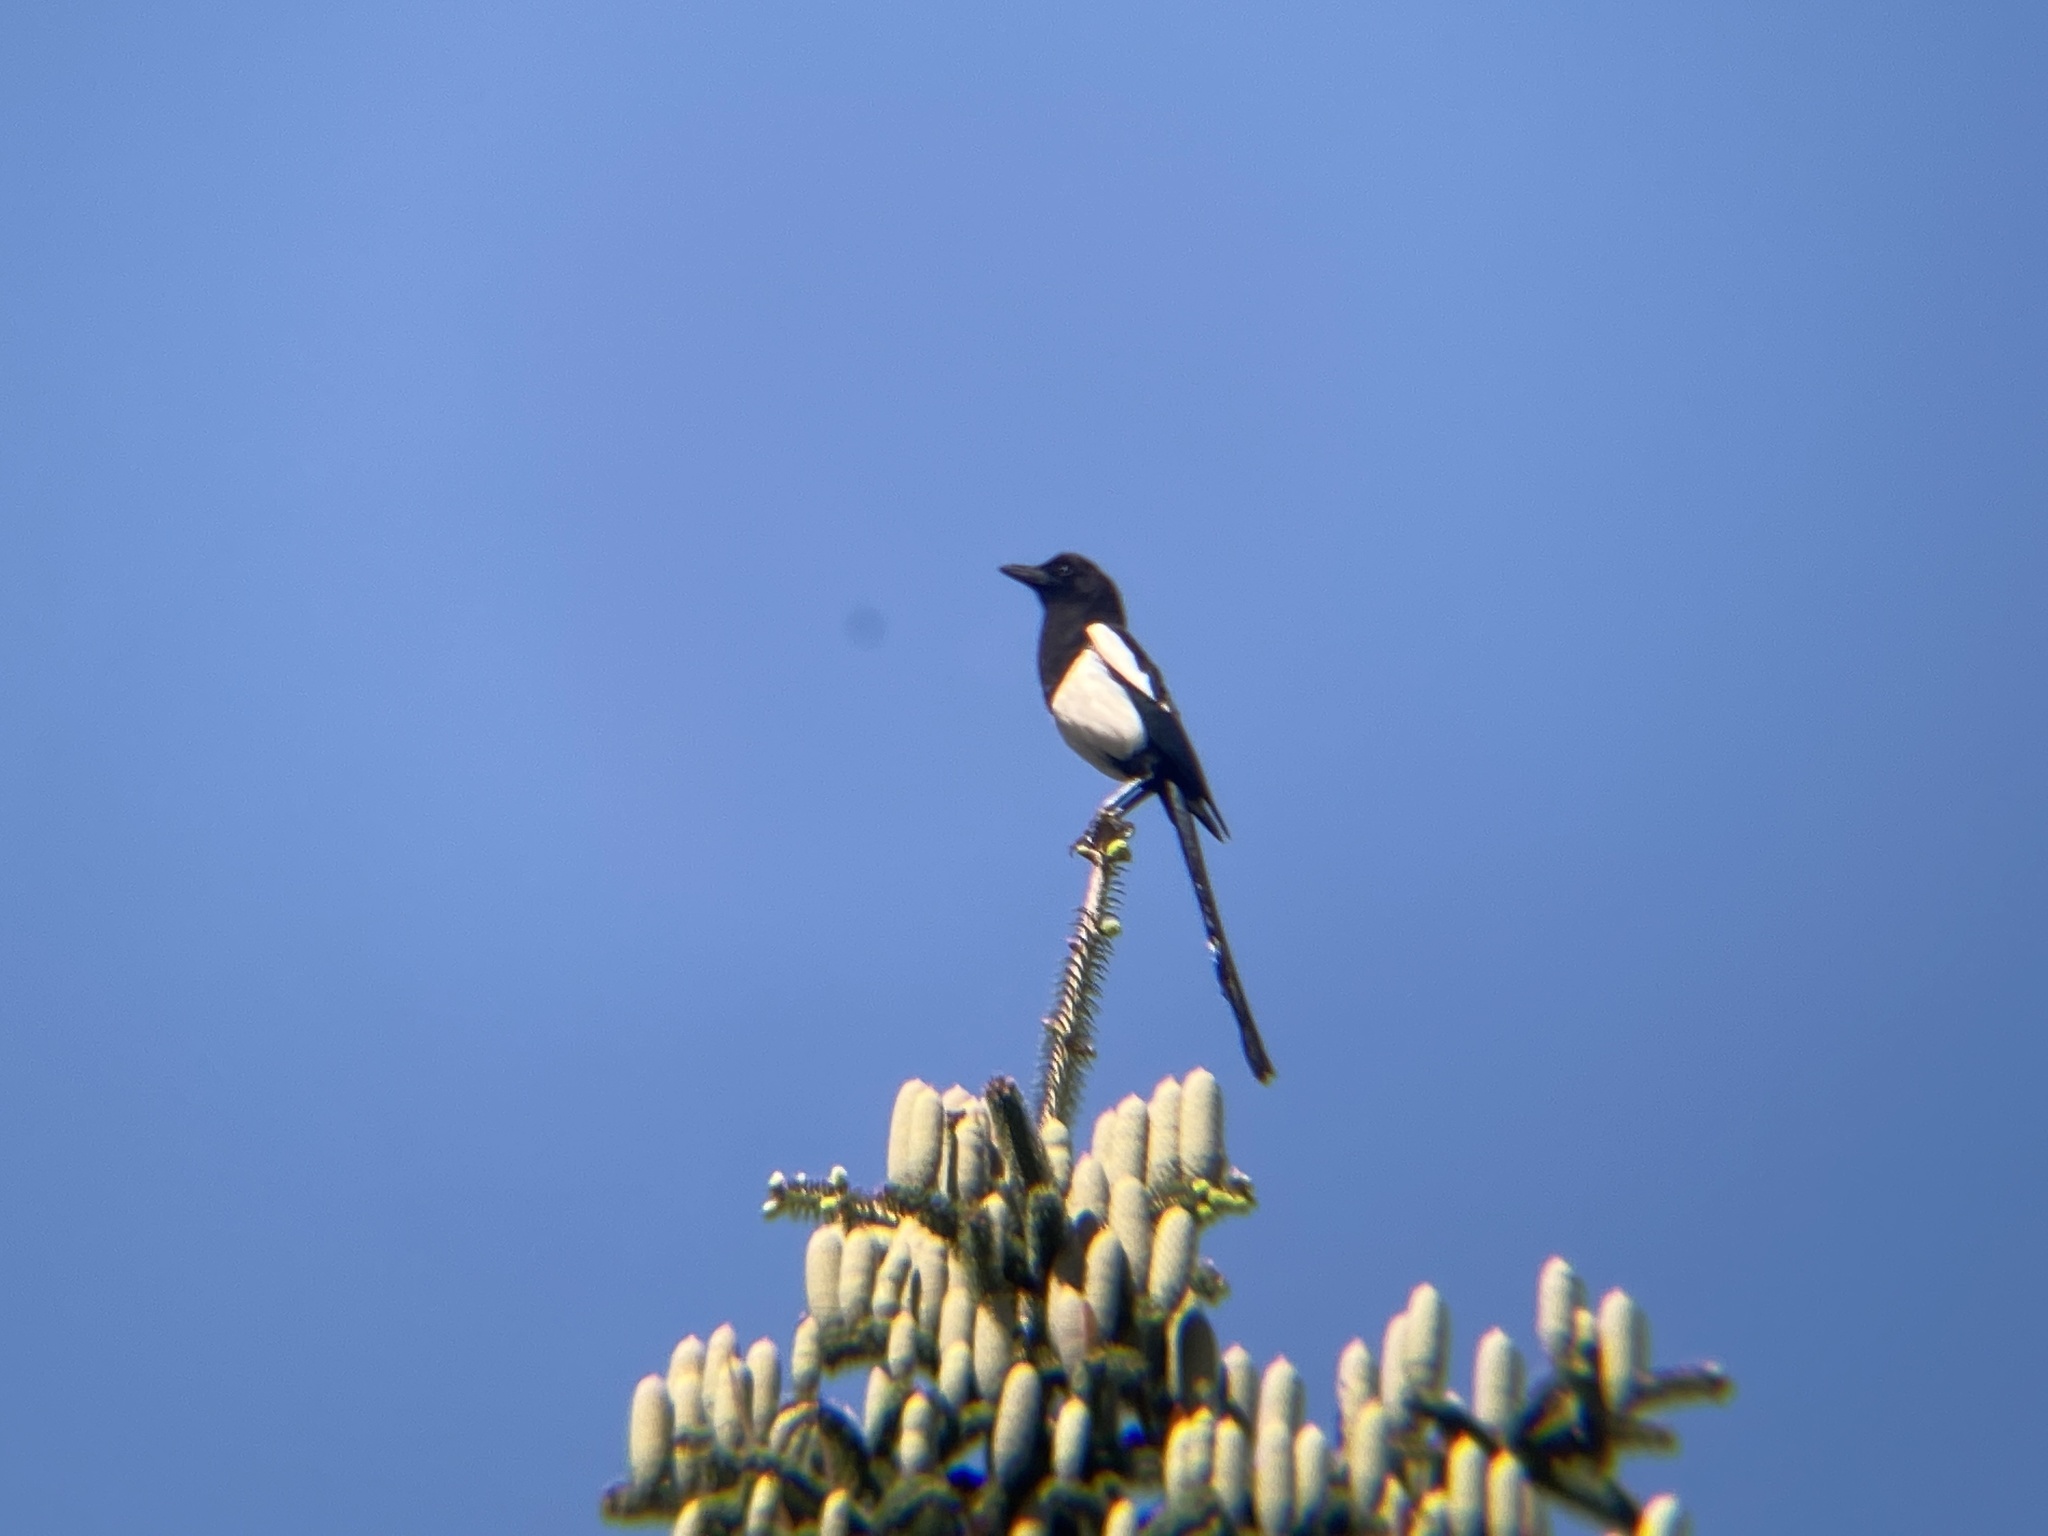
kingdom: Animalia
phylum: Chordata
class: Aves
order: Passeriformes
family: Corvidae
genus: Pica
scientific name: Pica pica
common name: Eurasian magpie
